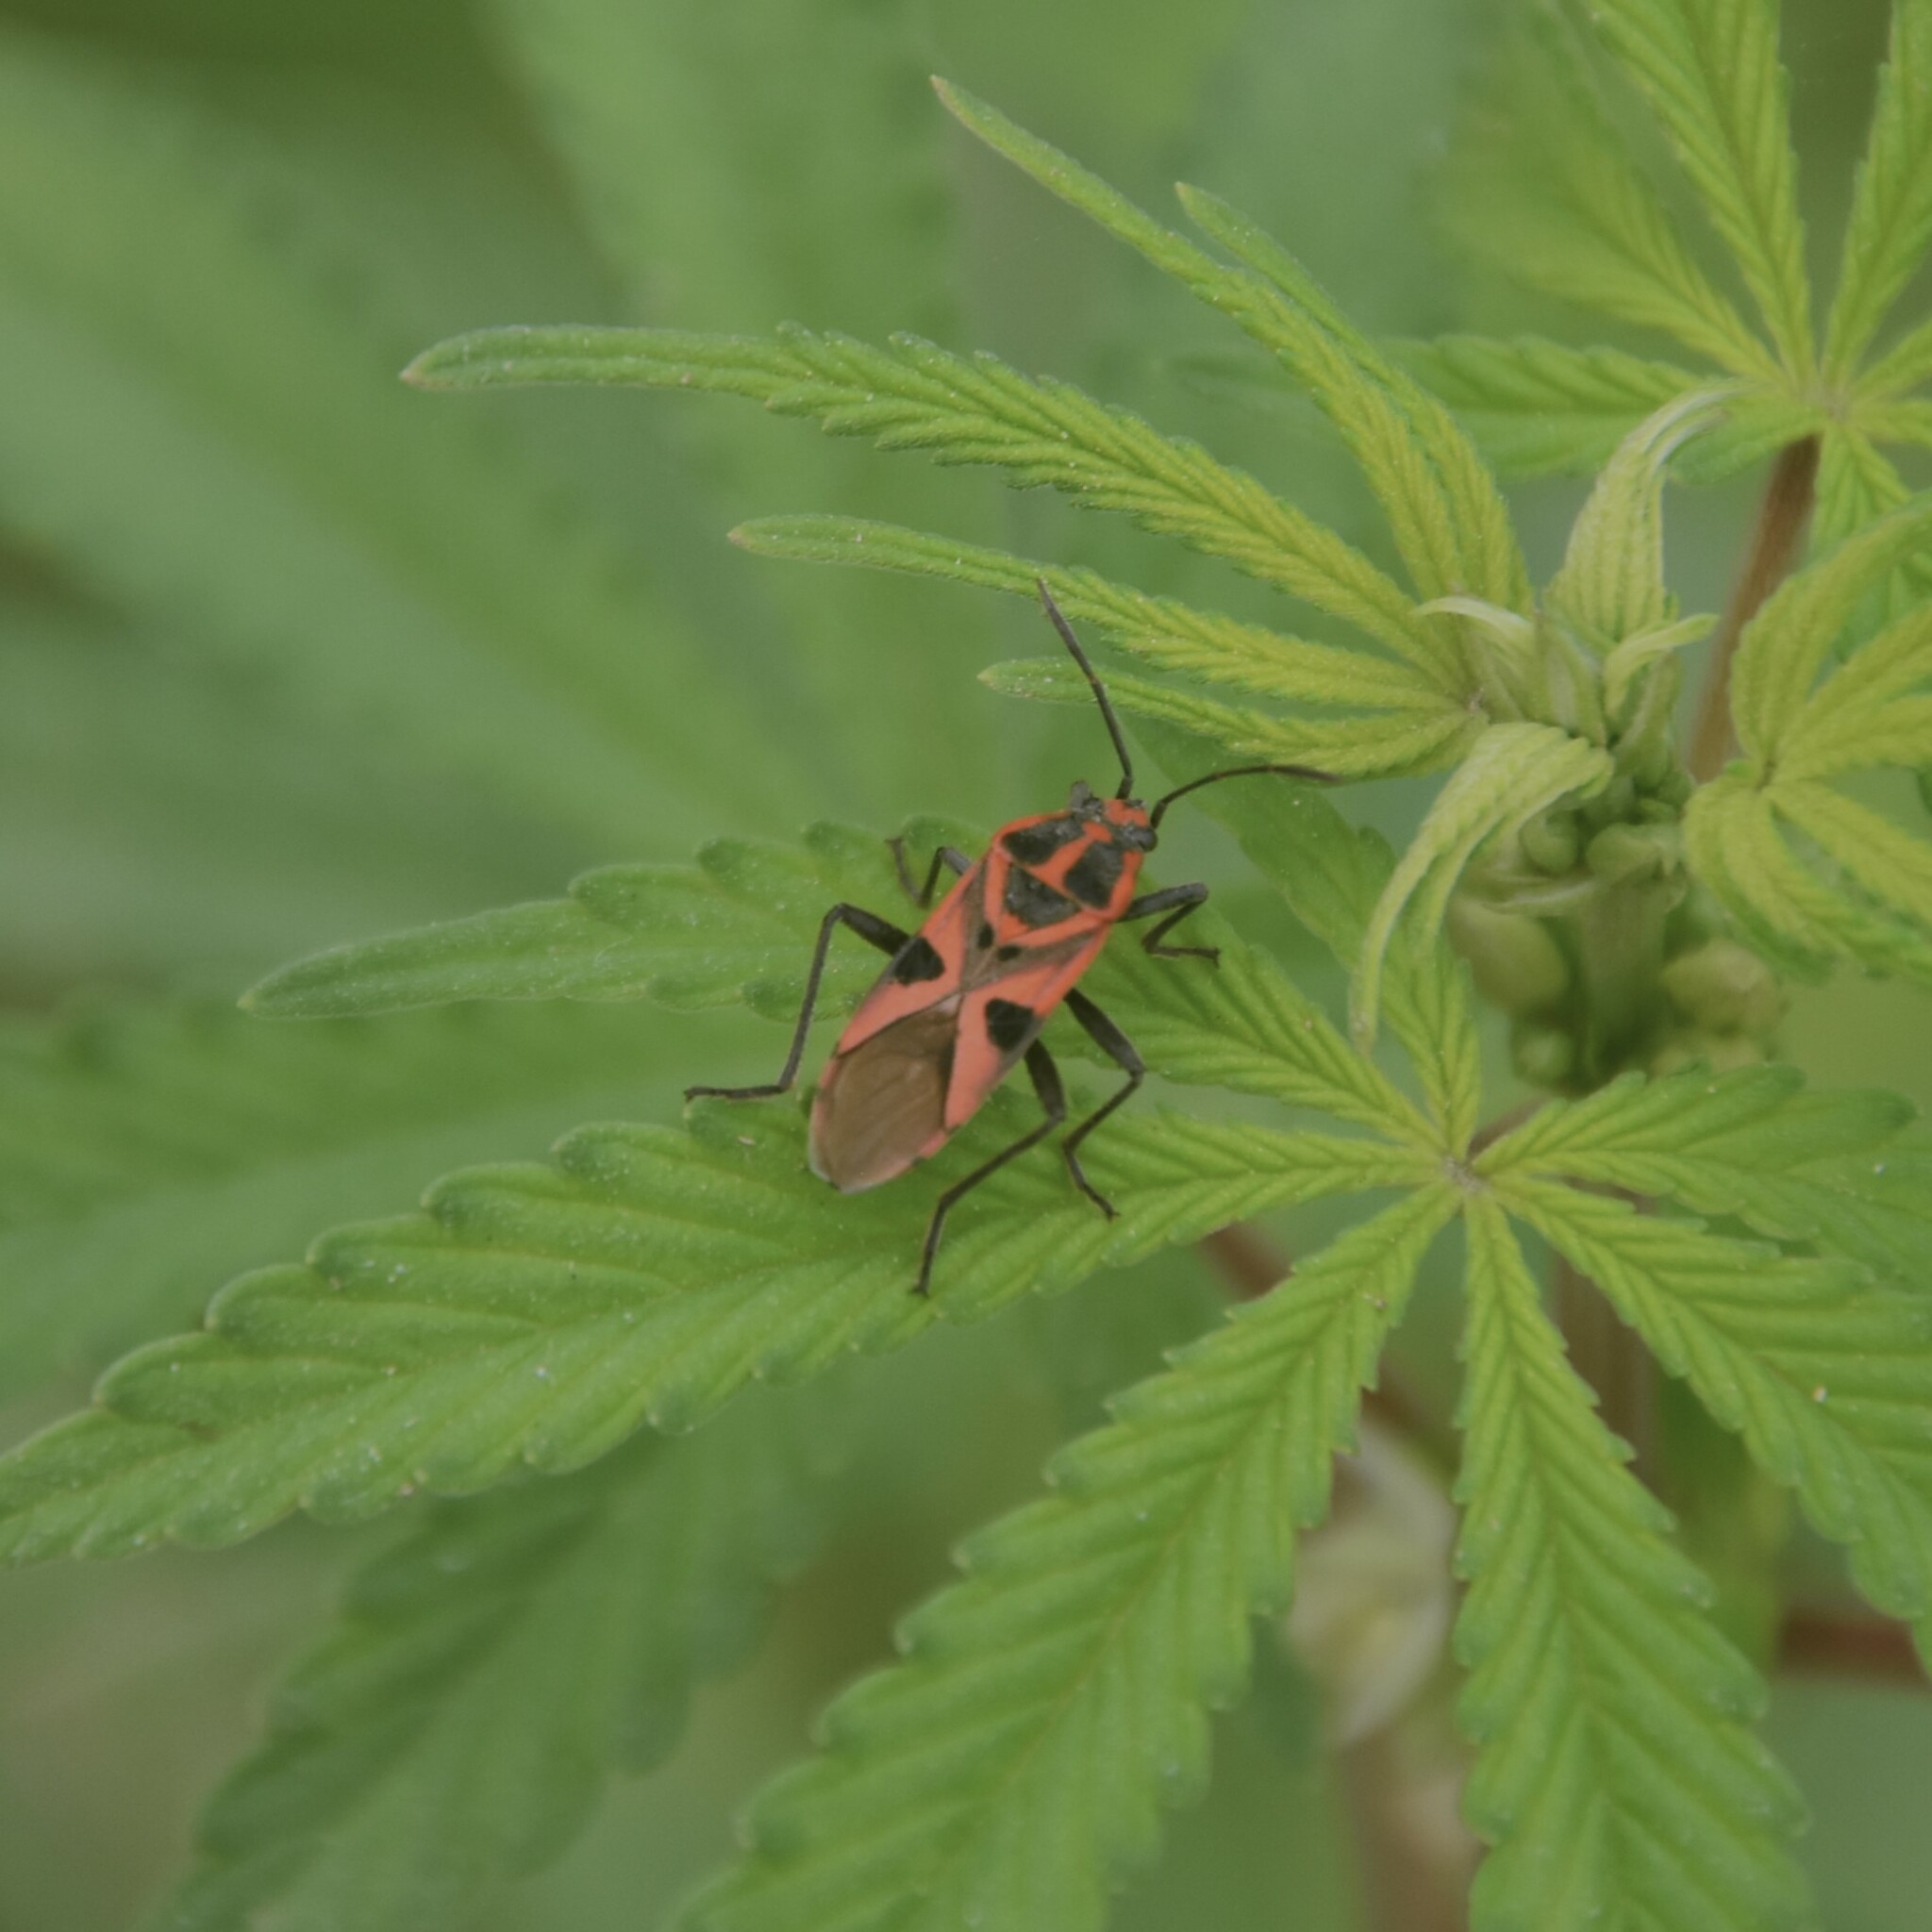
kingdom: Animalia
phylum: Arthropoda
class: Insecta
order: Hemiptera
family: Lygaeidae
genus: Spilostethus
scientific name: Spilostethus hospes
